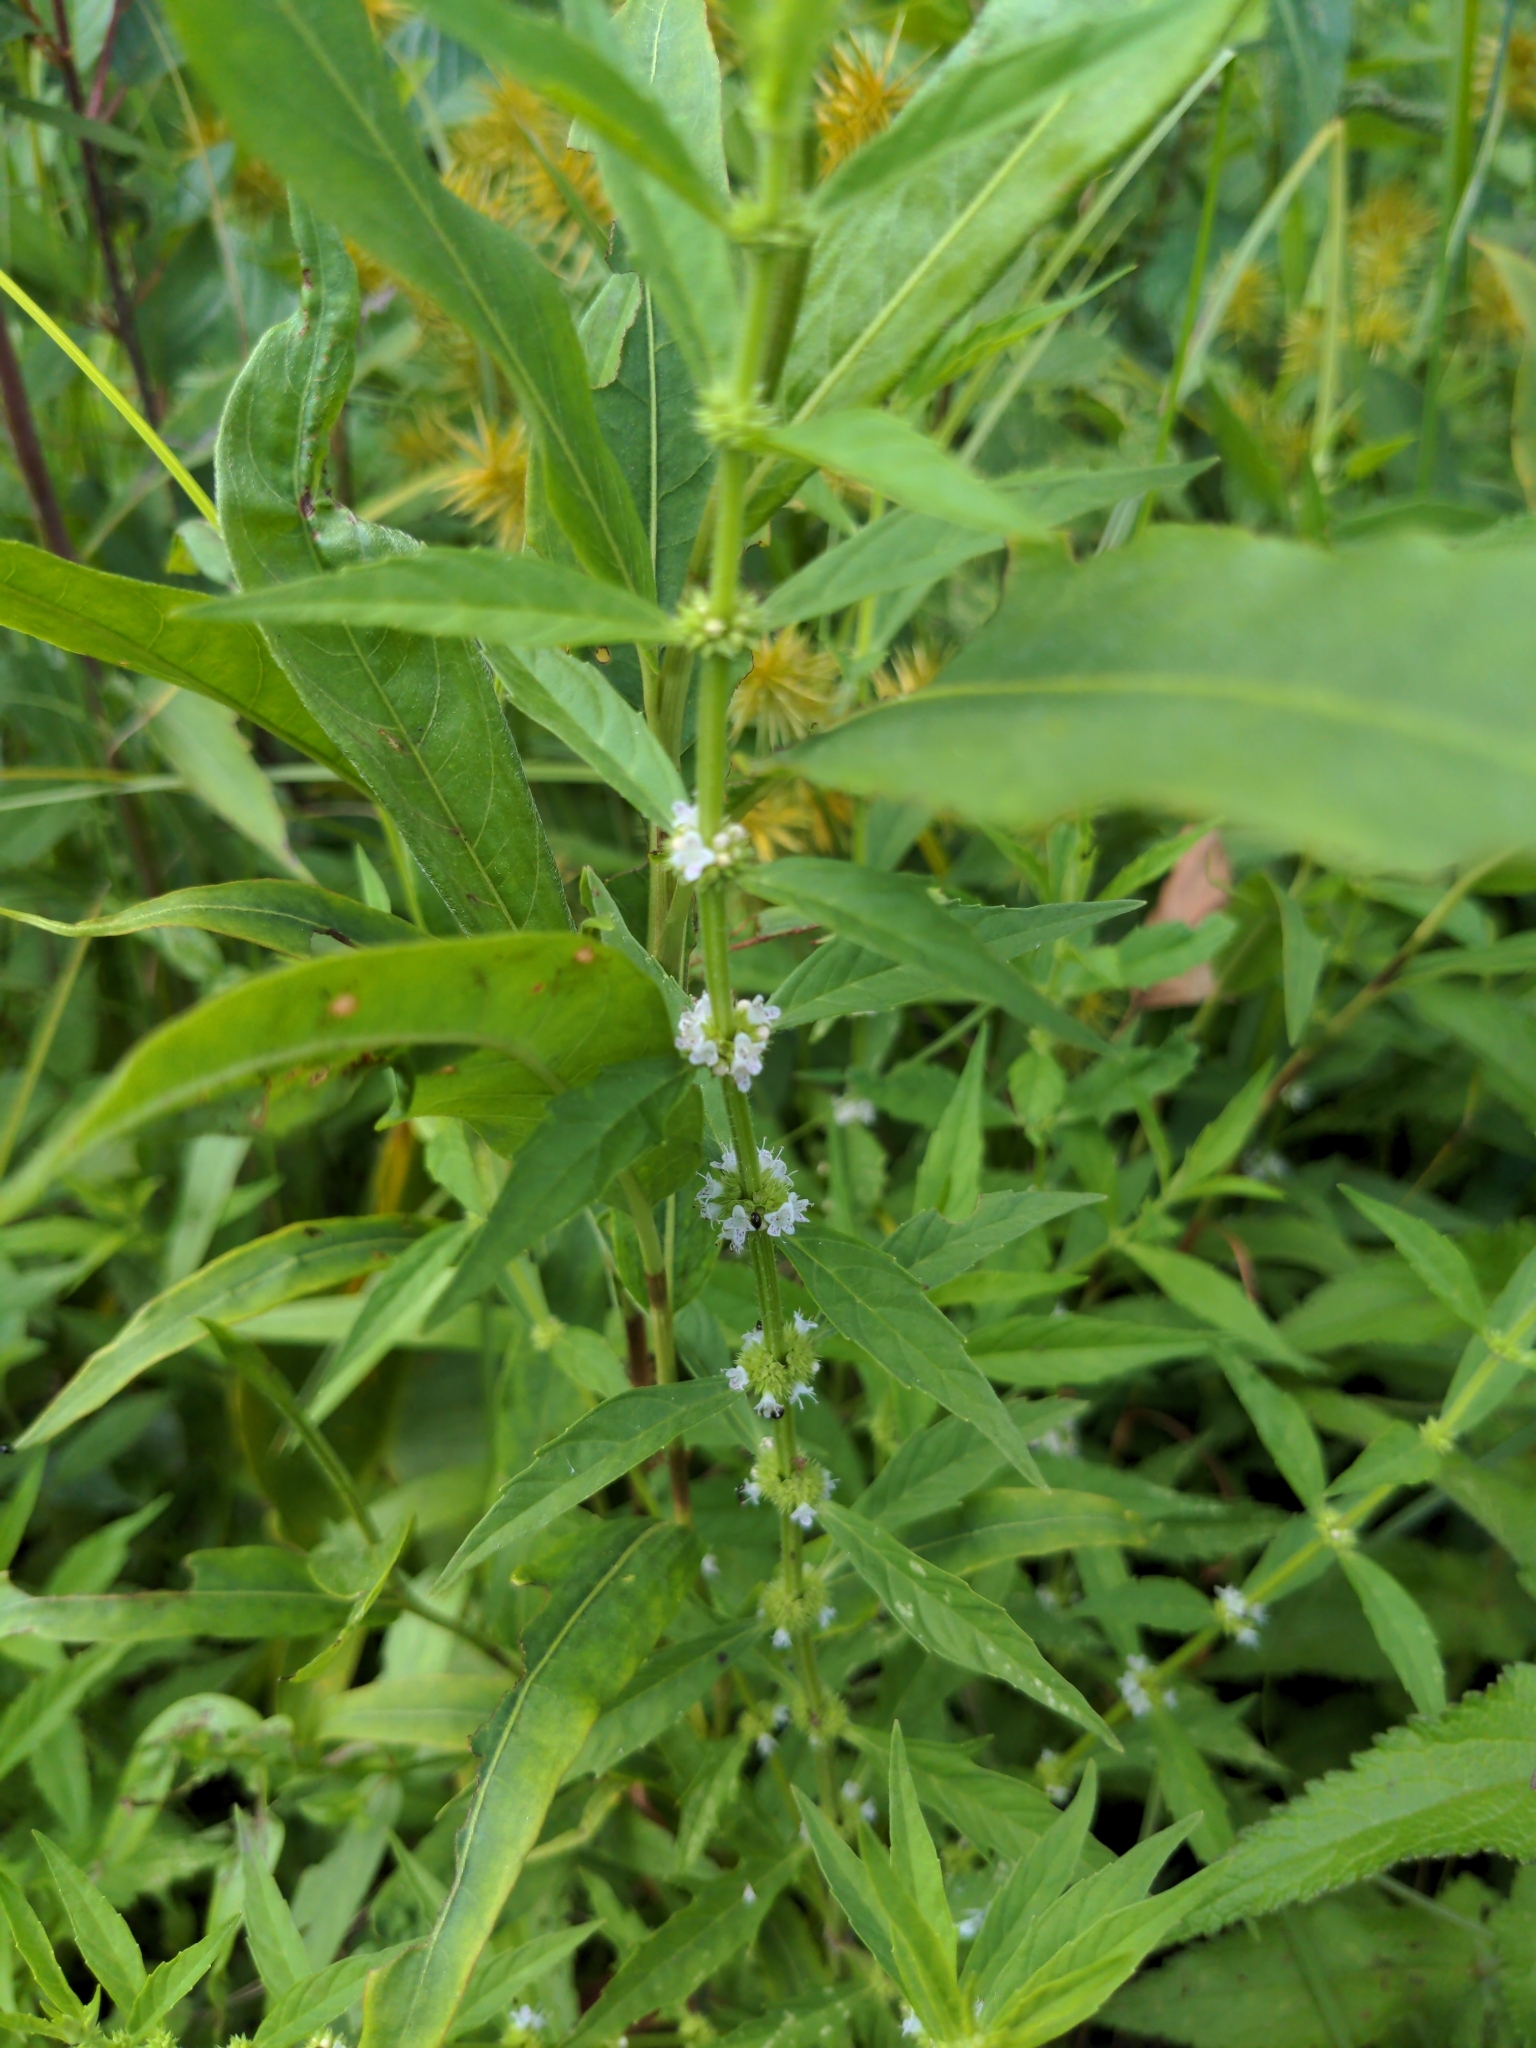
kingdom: Plantae
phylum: Tracheophyta
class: Magnoliopsida
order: Lamiales
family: Lamiaceae
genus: Lycopus
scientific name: Lycopus americanus
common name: American bugleweed
